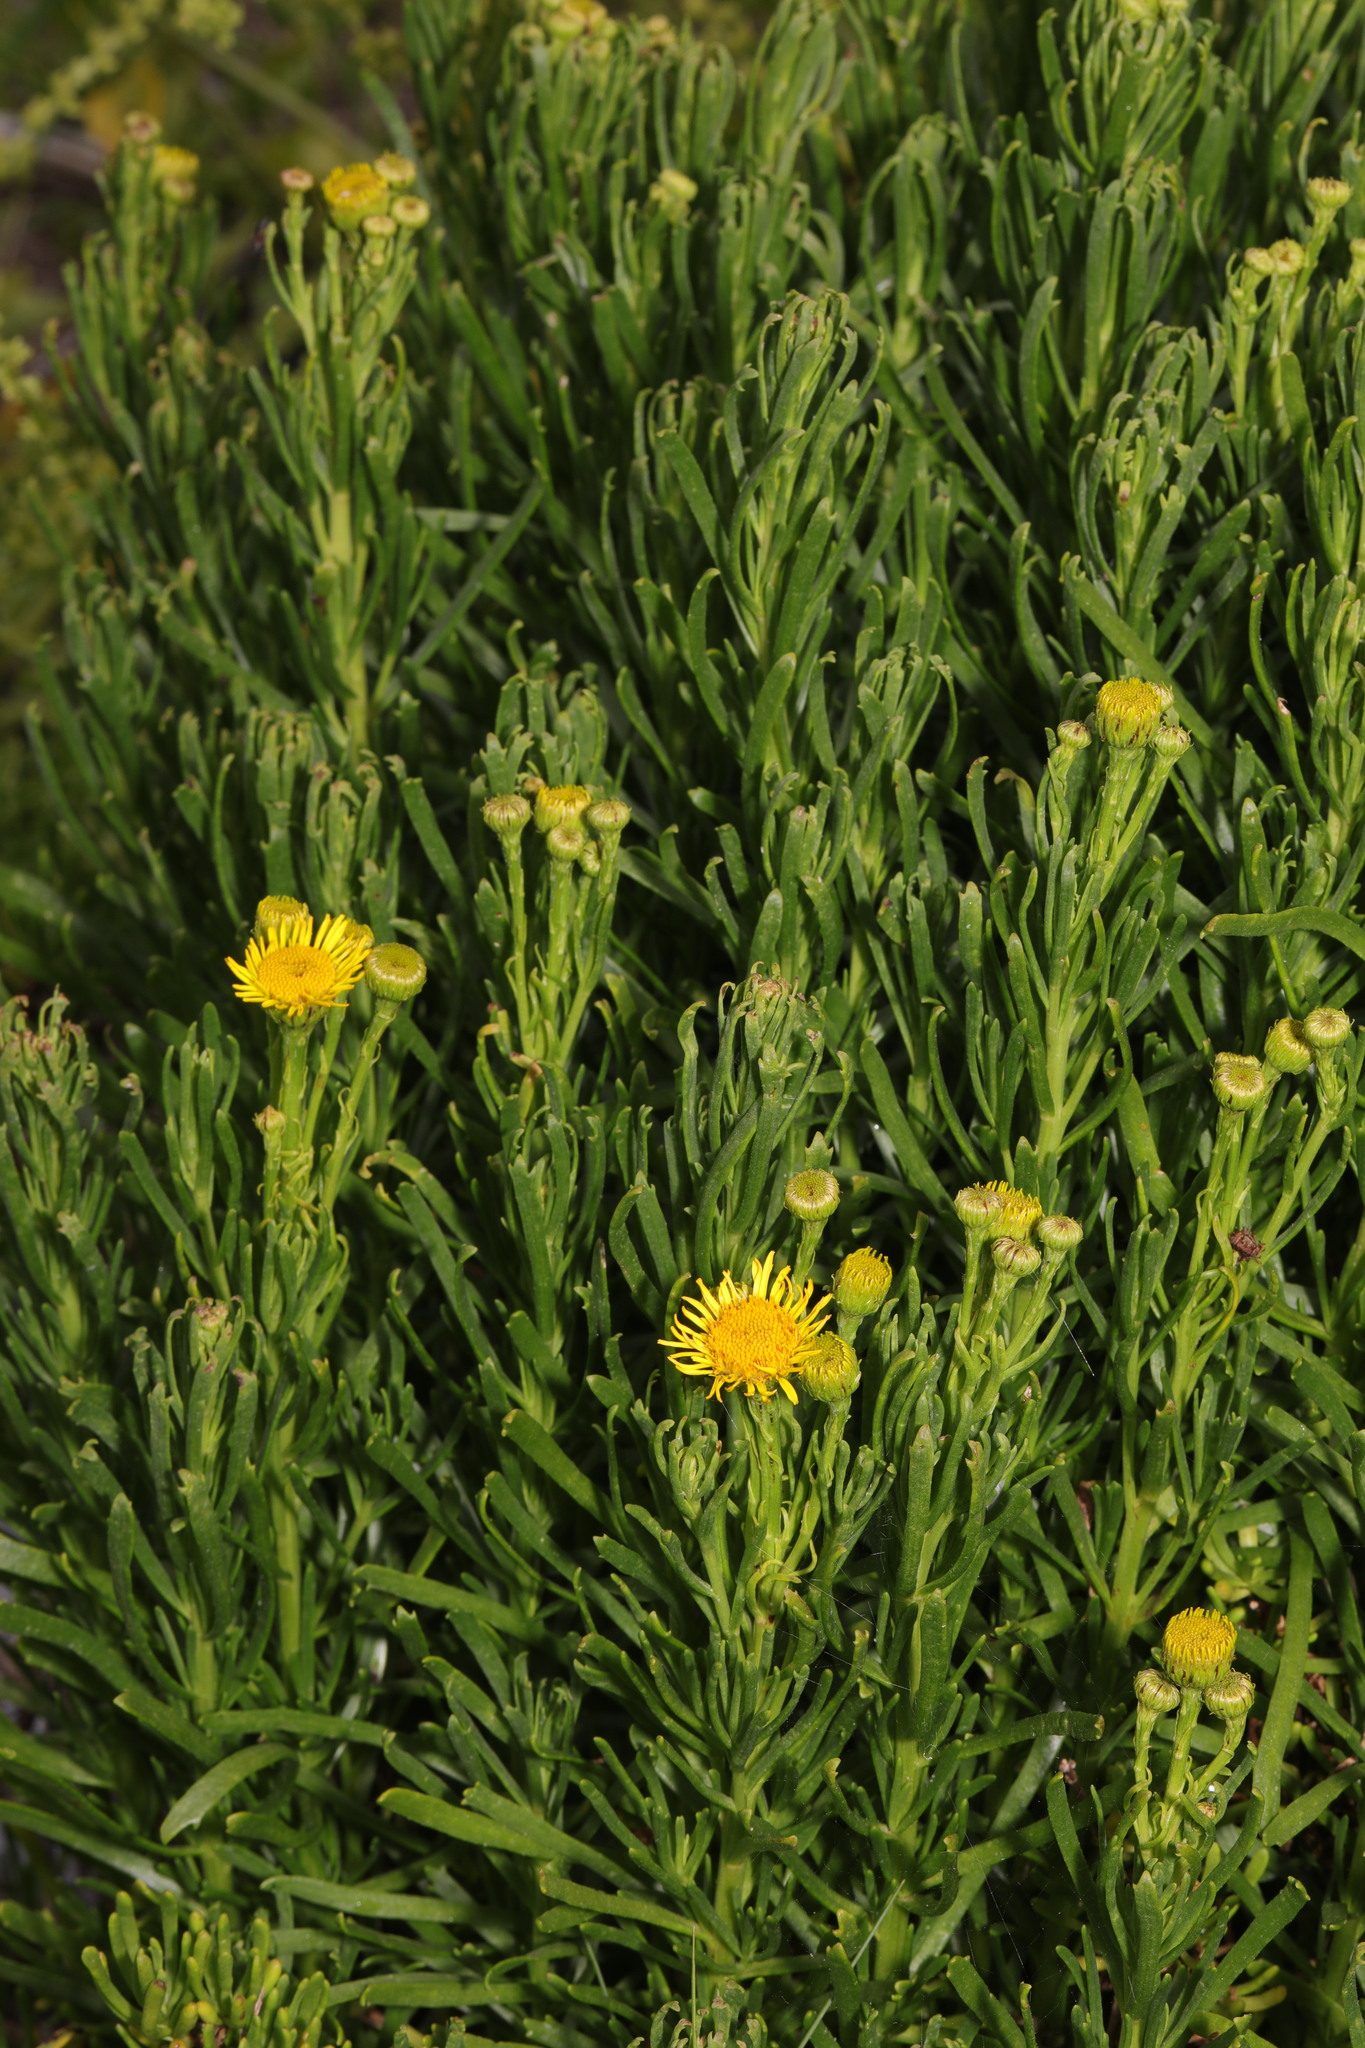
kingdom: Plantae
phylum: Tracheophyta
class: Magnoliopsida
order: Asterales
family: Asteraceae
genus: Limbarda
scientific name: Limbarda crithmoides
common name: Golden samphire
